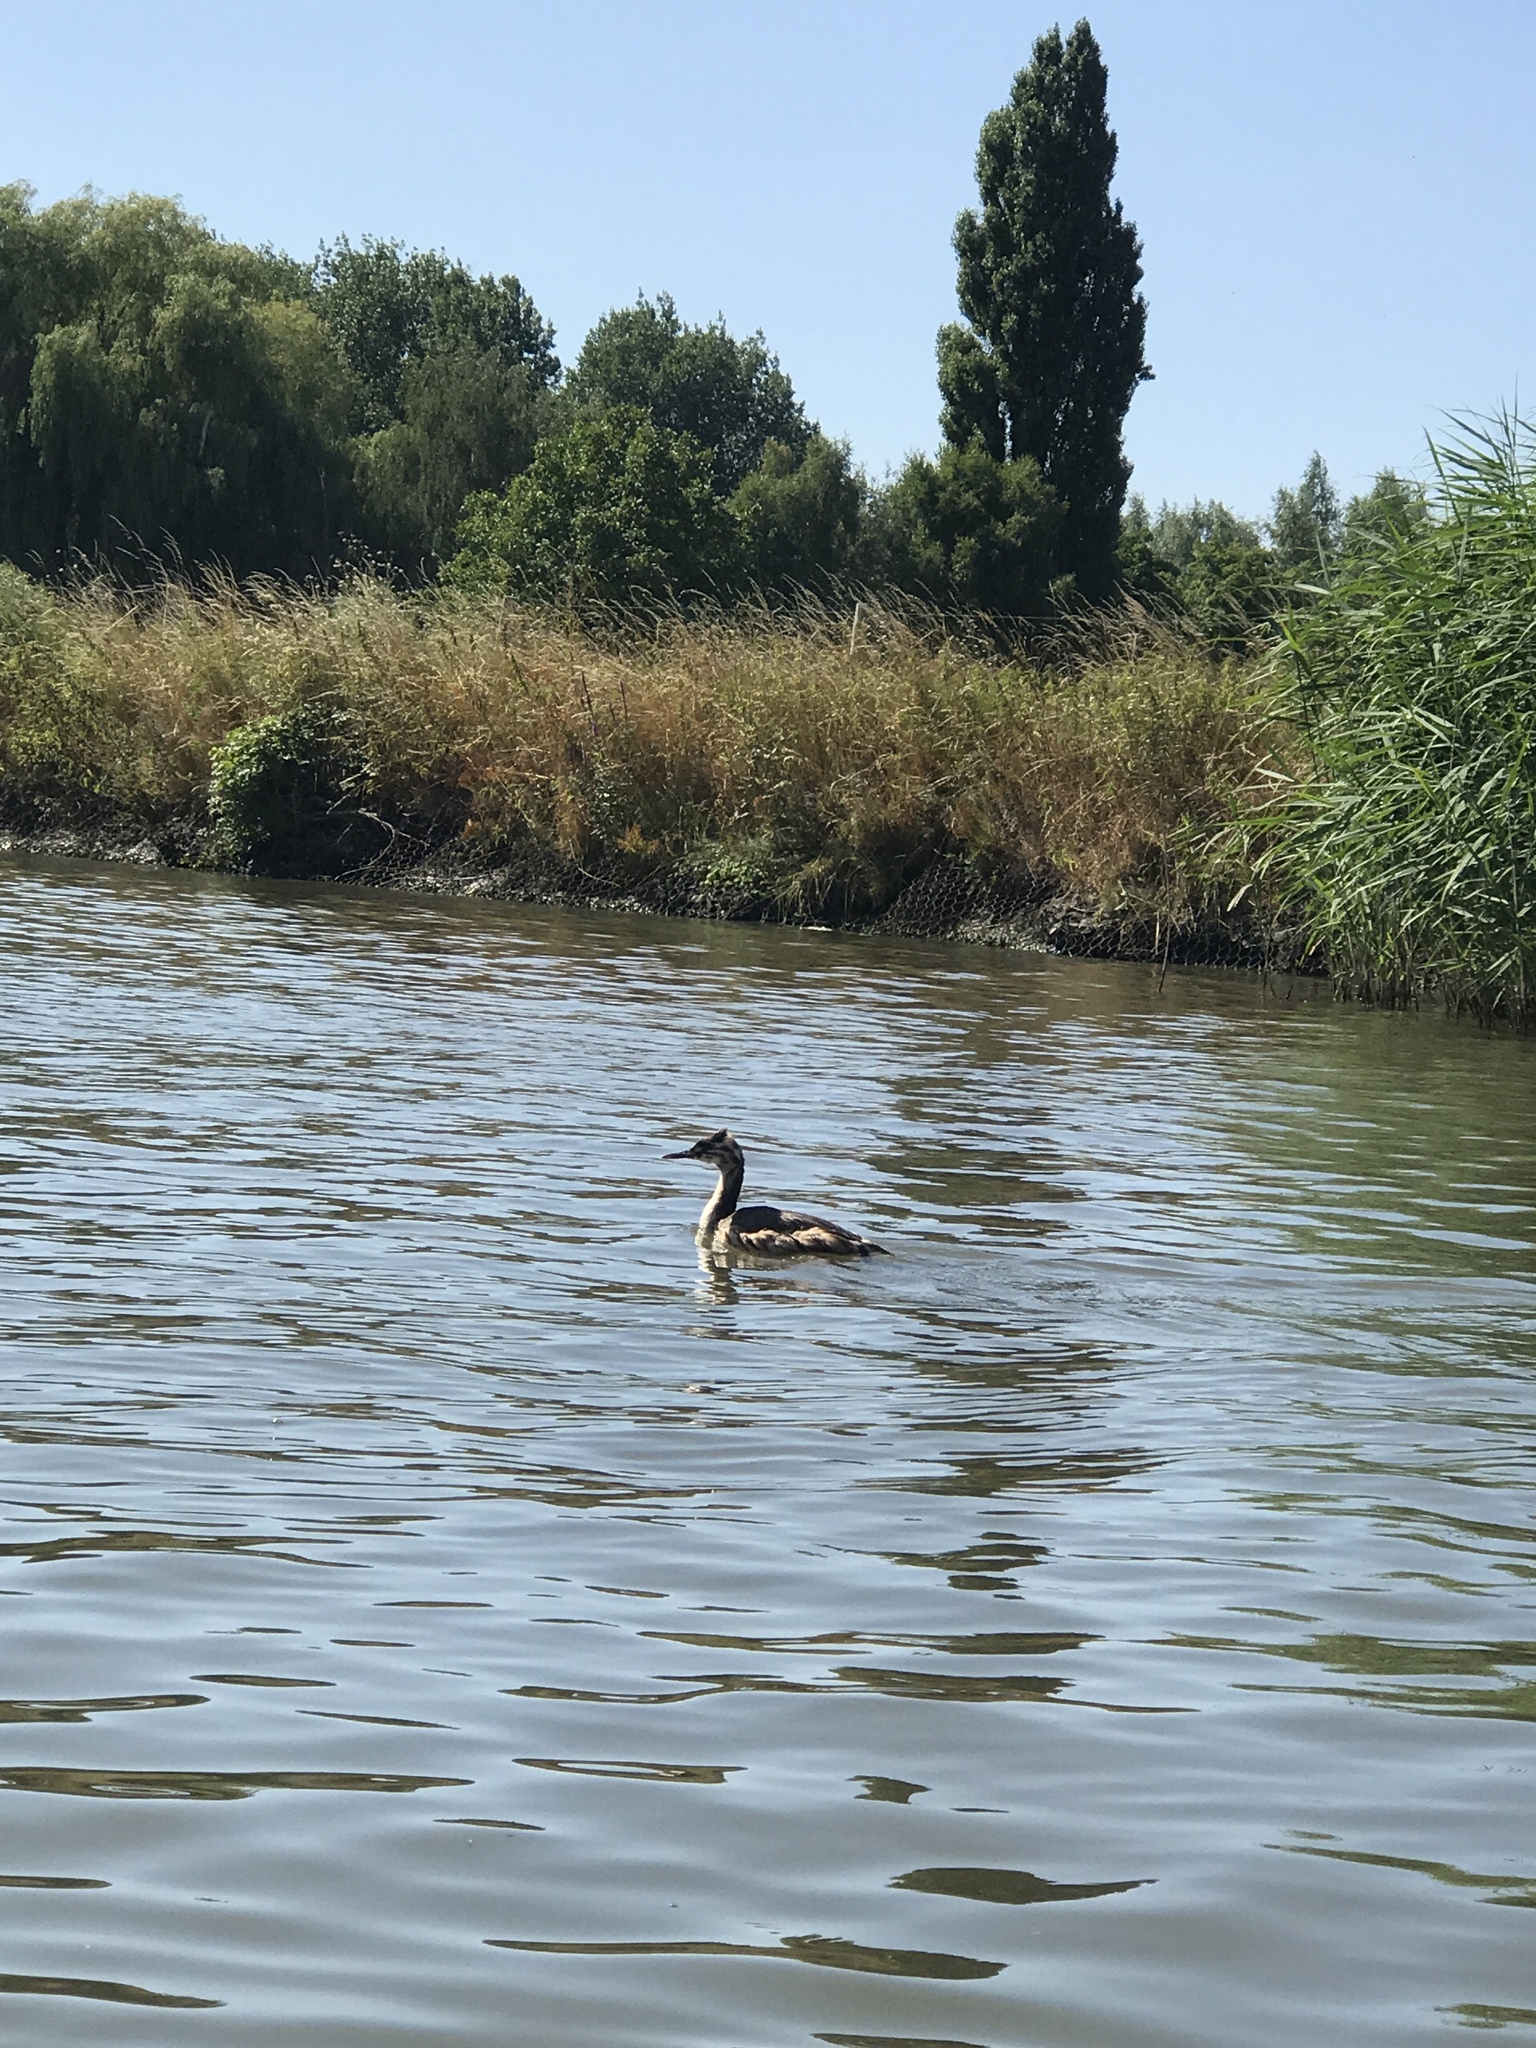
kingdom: Animalia
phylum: Chordata
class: Aves
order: Podicipediformes
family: Podicipedidae
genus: Podiceps
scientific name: Podiceps cristatus
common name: Great crested grebe
